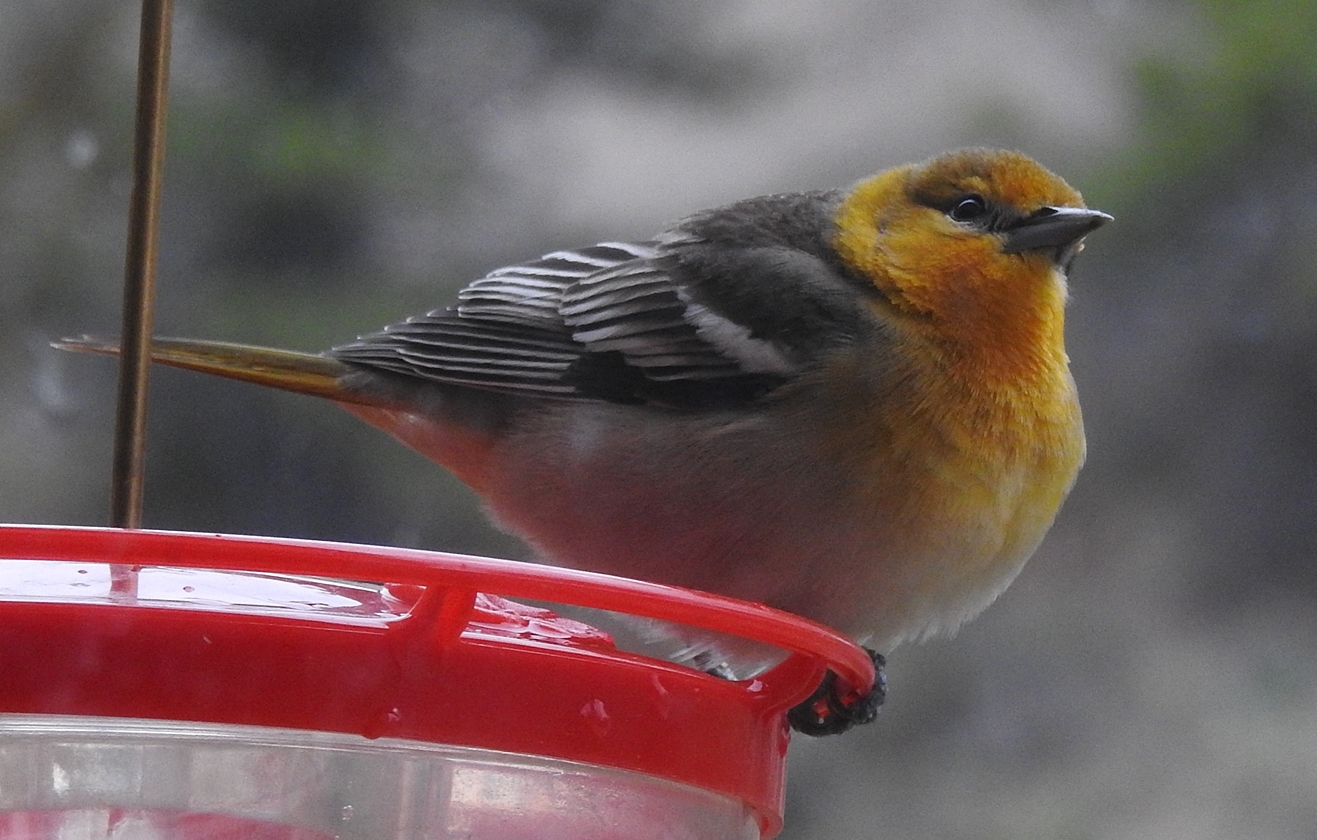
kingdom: Animalia
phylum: Chordata
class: Aves
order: Passeriformes
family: Icteridae
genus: Icterus
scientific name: Icterus bullockii
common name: Bullock's oriole
